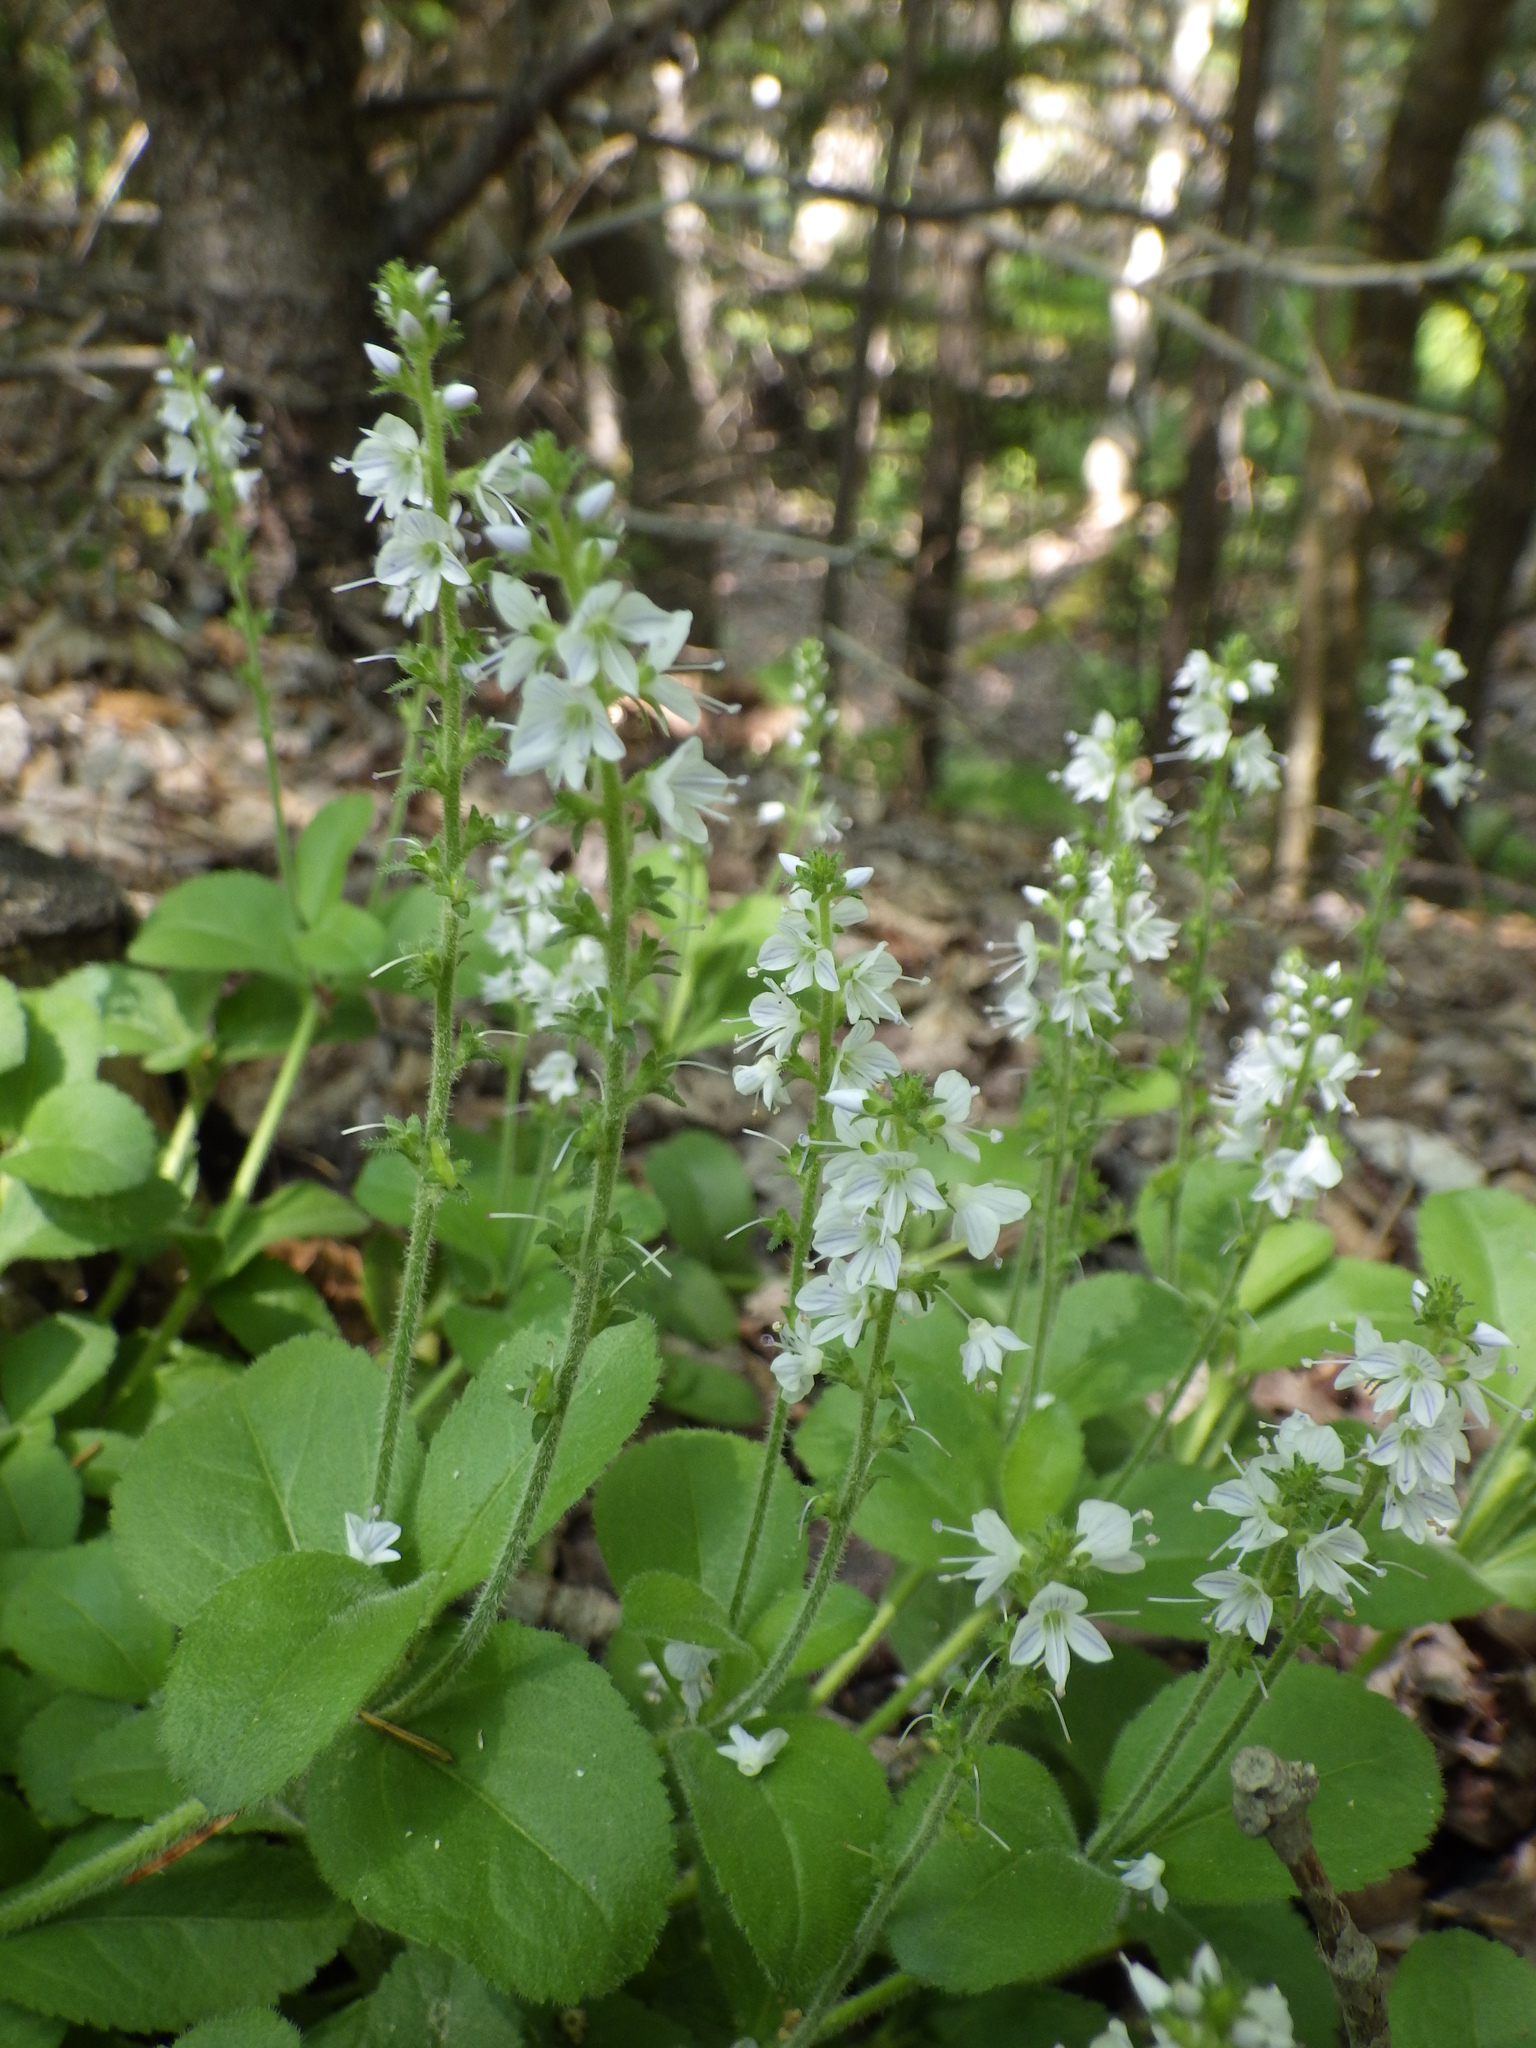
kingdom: Plantae
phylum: Tracheophyta
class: Magnoliopsida
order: Lamiales
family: Plantaginaceae
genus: Veronica
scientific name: Veronica officinalis
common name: Common speedwell
